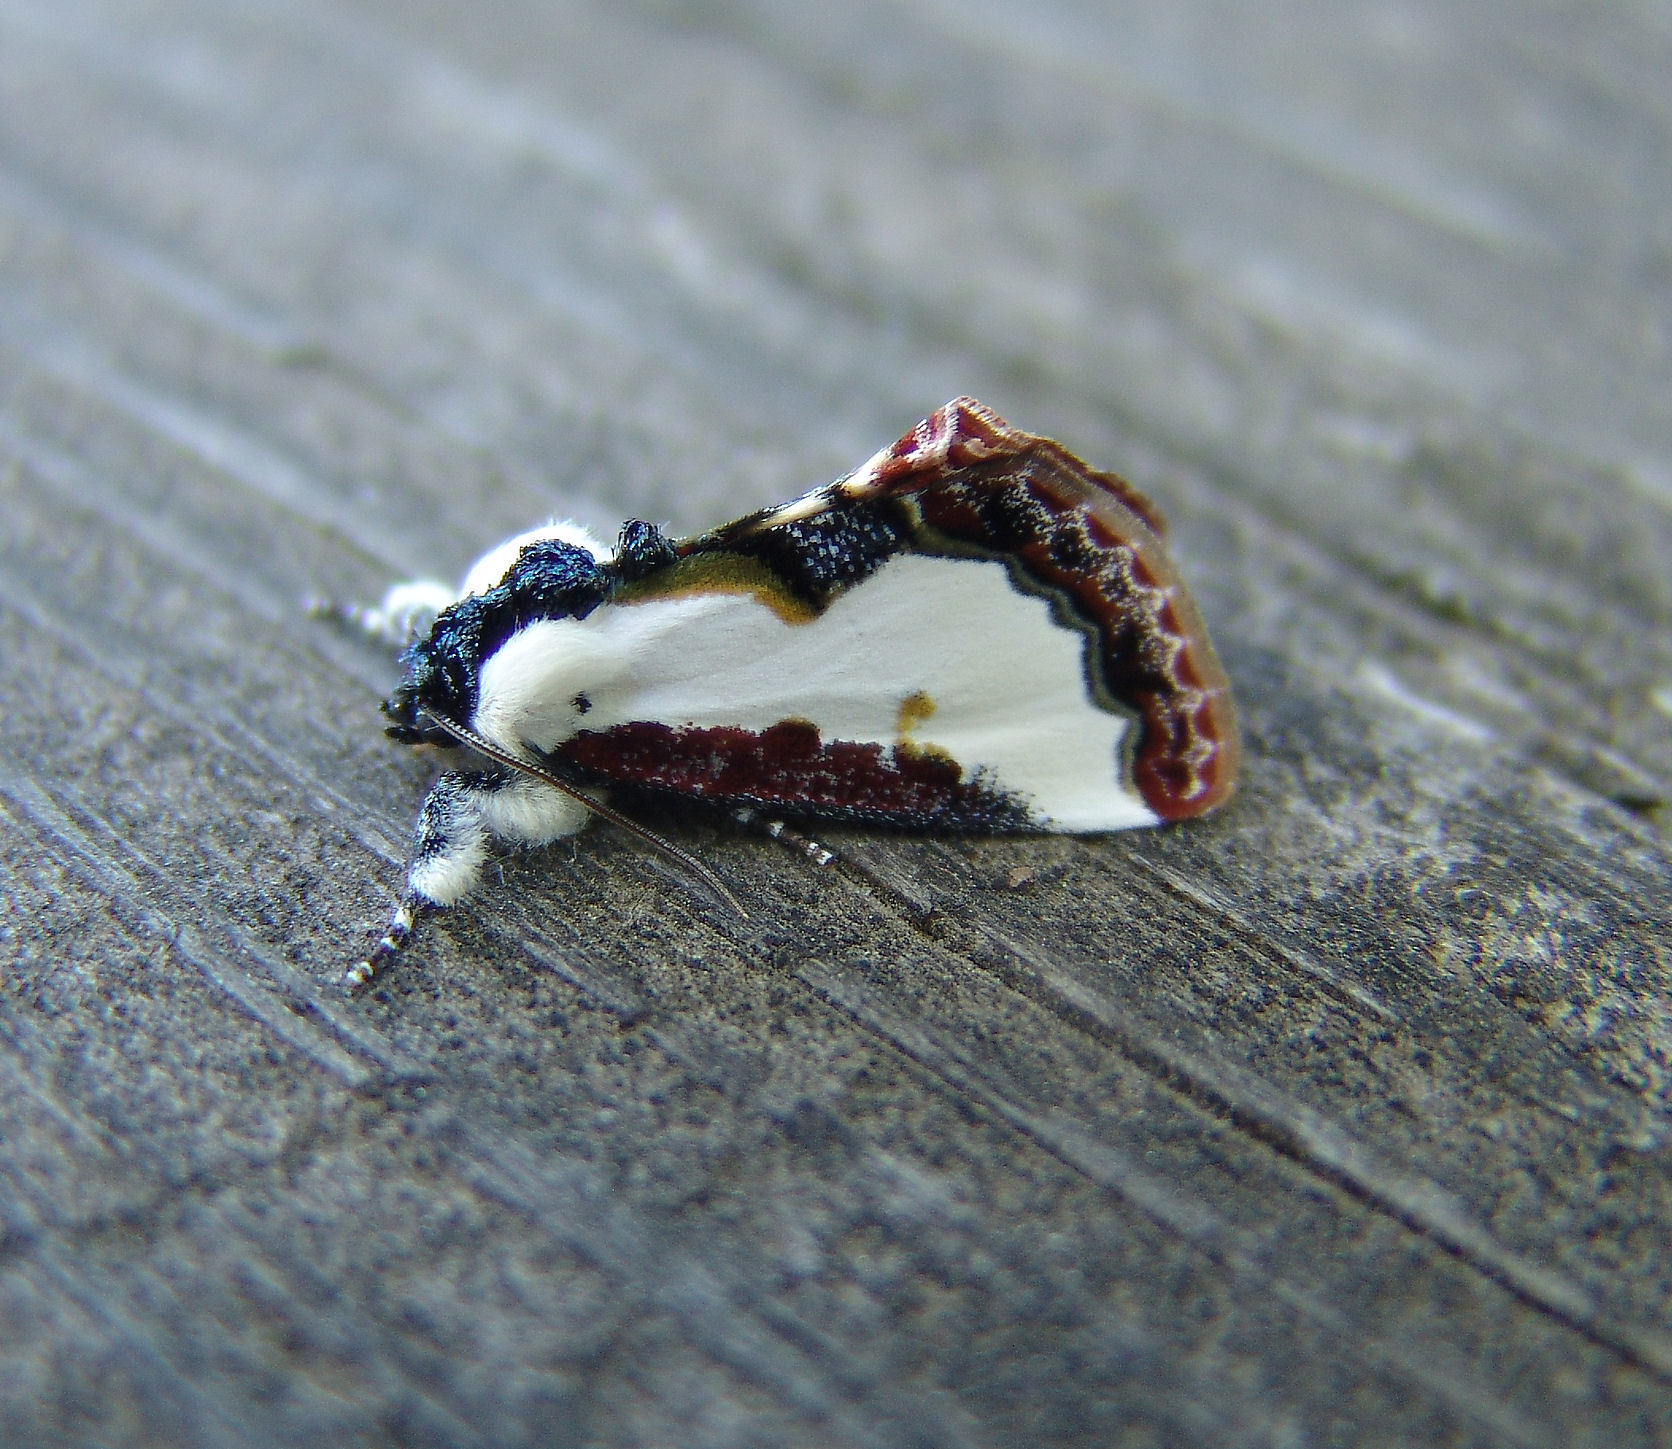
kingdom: Animalia
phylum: Arthropoda
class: Insecta
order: Lepidoptera
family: Noctuidae
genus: Eudryas
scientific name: Eudryas unio
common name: Pearly wood-nymph
